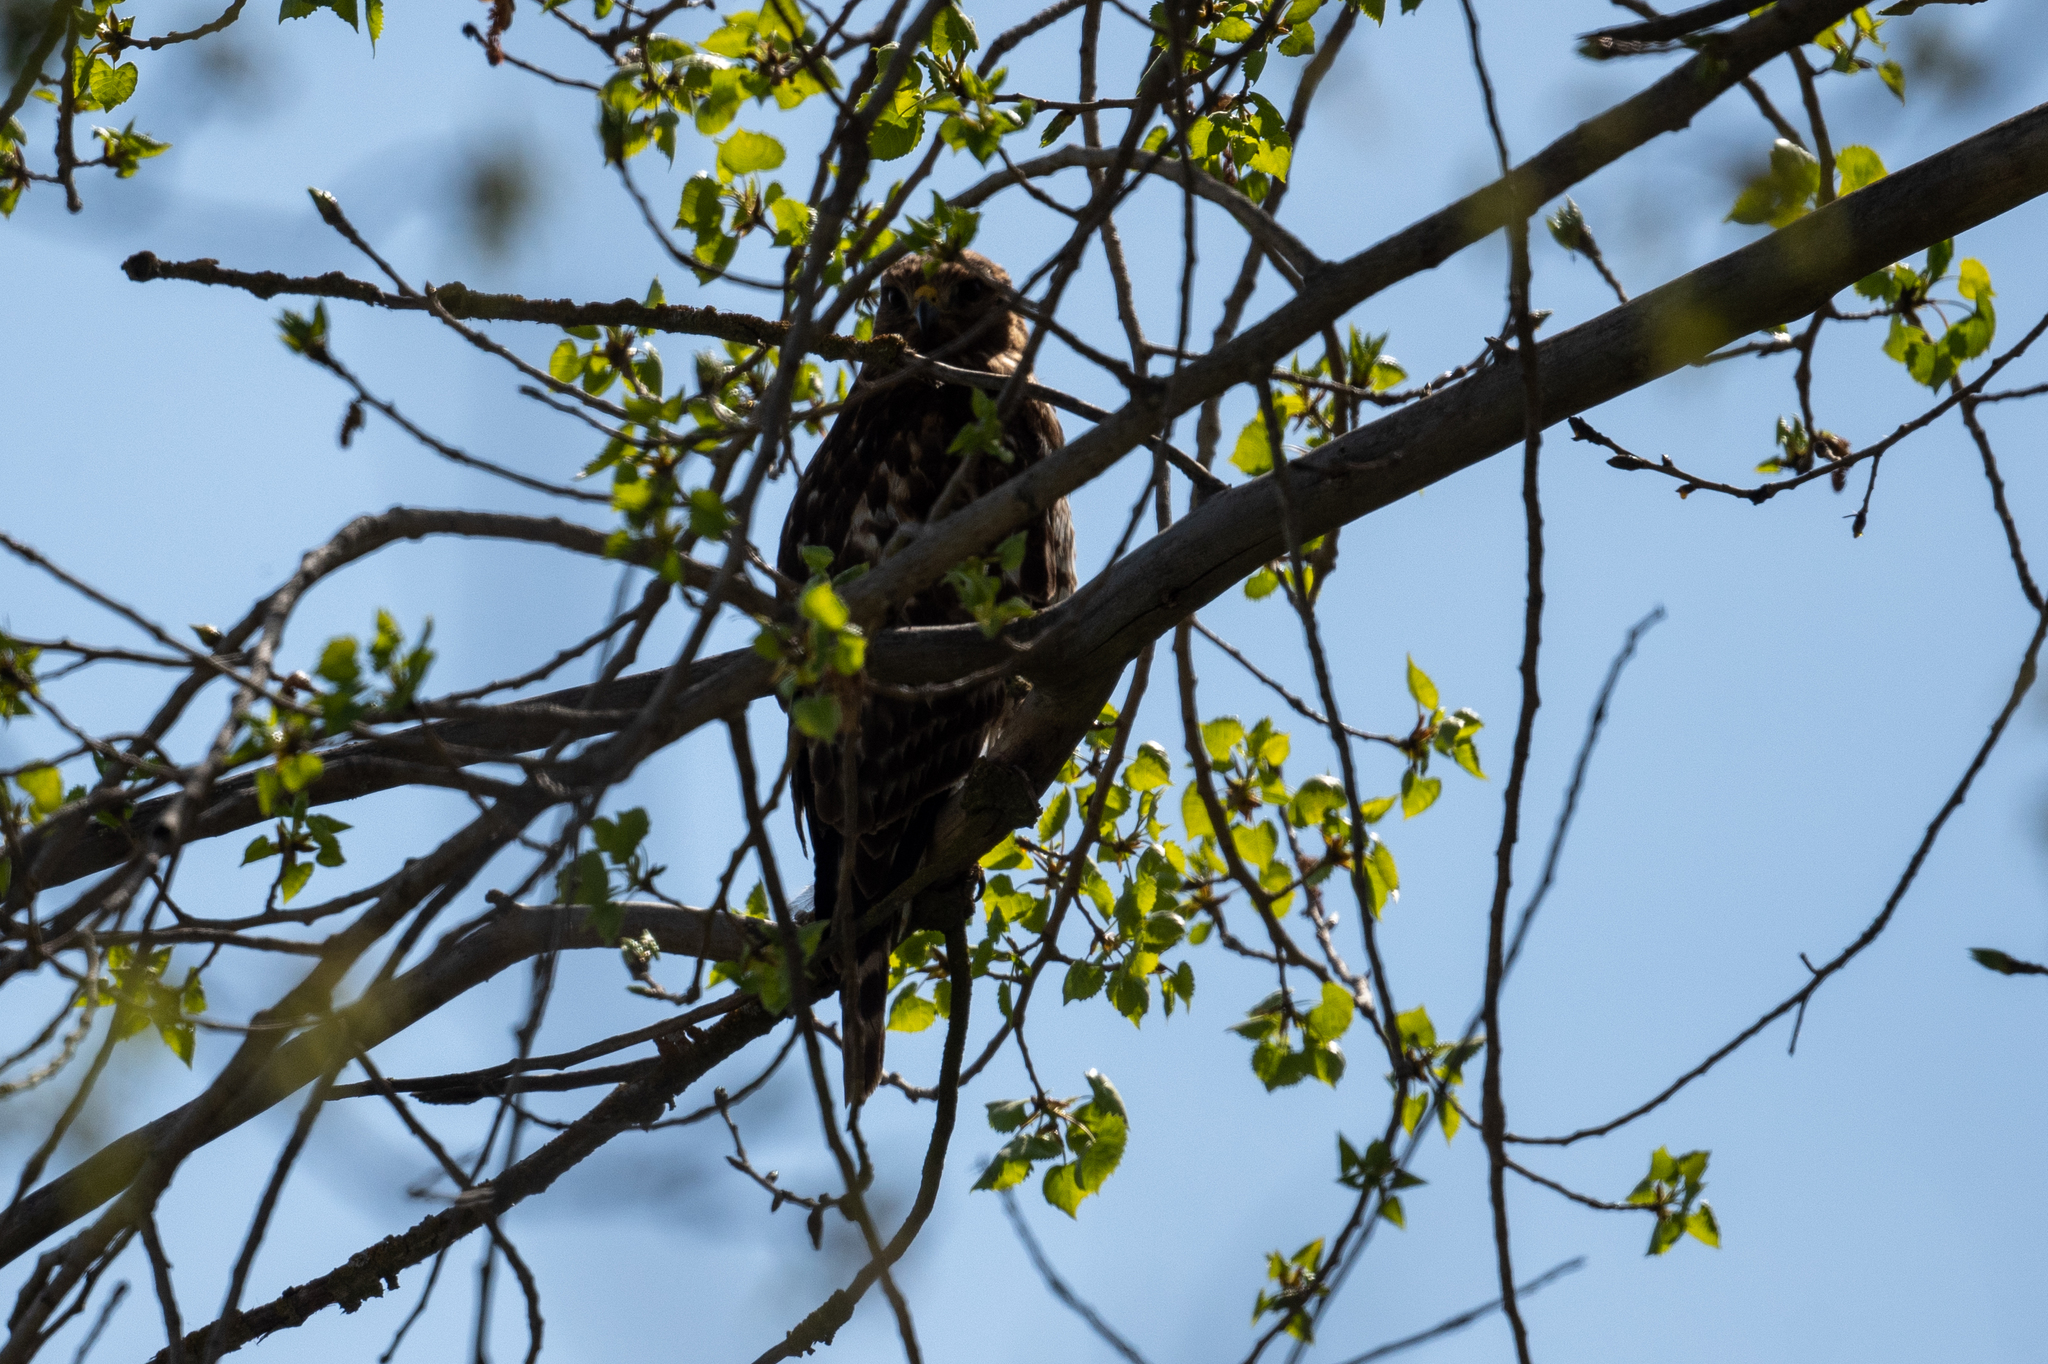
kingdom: Animalia
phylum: Chordata
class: Aves
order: Accipitriformes
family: Accipitridae
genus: Buteo
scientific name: Buteo lineatus
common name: Red-shouldered hawk
